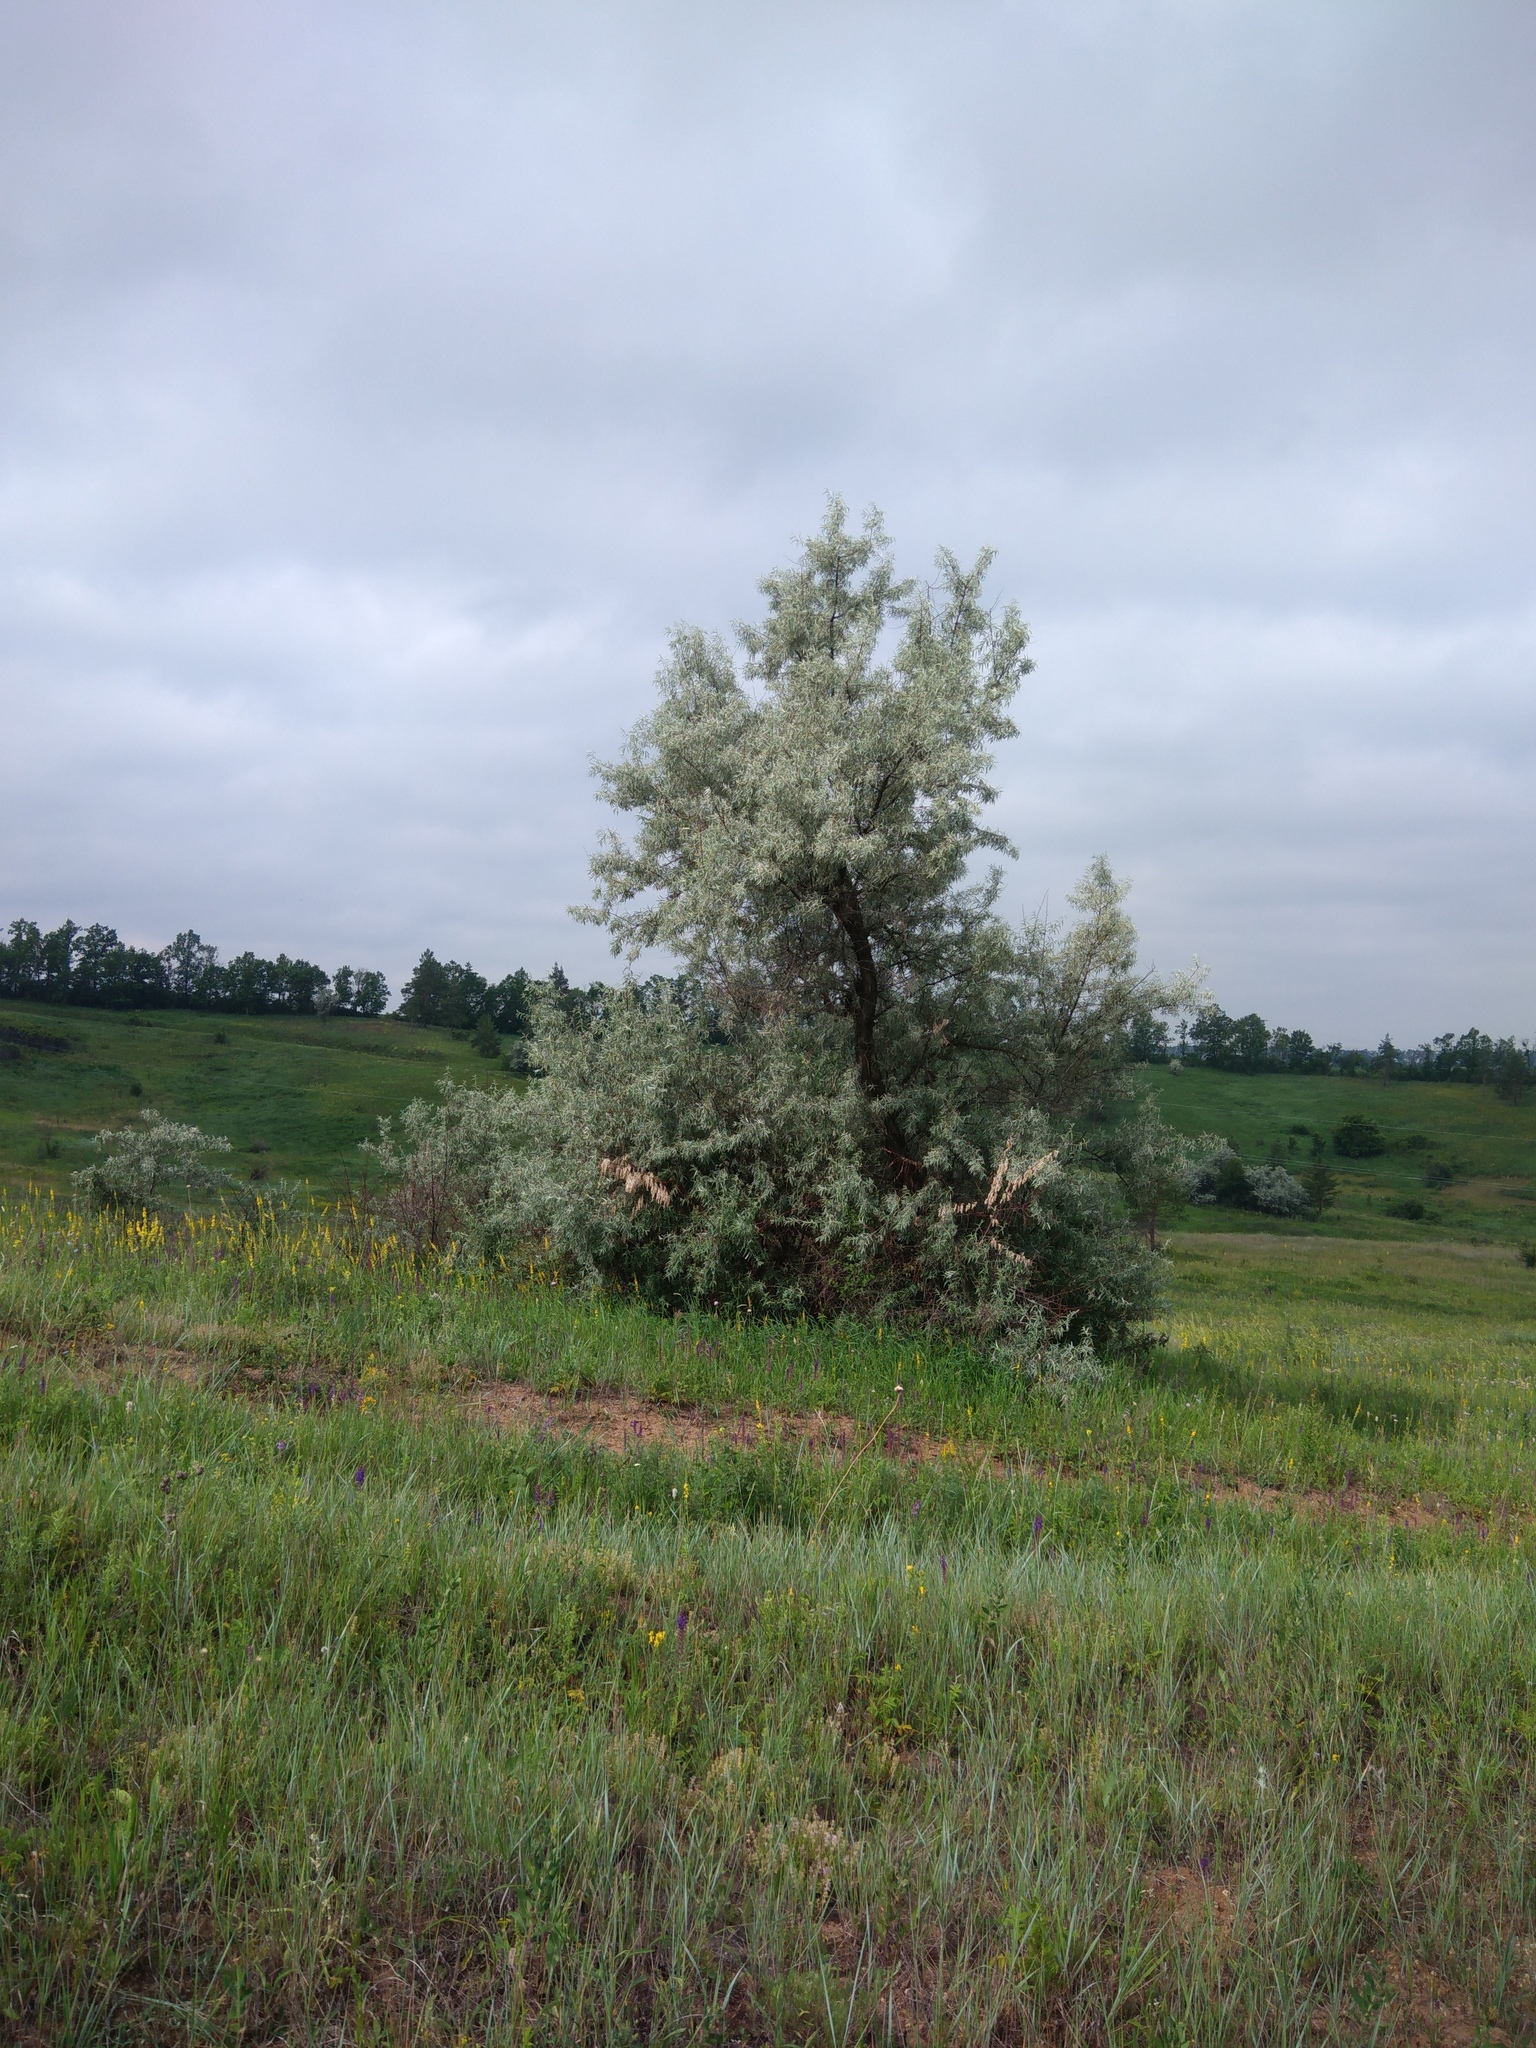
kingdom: Plantae
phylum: Tracheophyta
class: Magnoliopsida
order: Rosales
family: Elaeagnaceae
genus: Elaeagnus
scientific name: Elaeagnus angustifolia
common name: Russian olive
